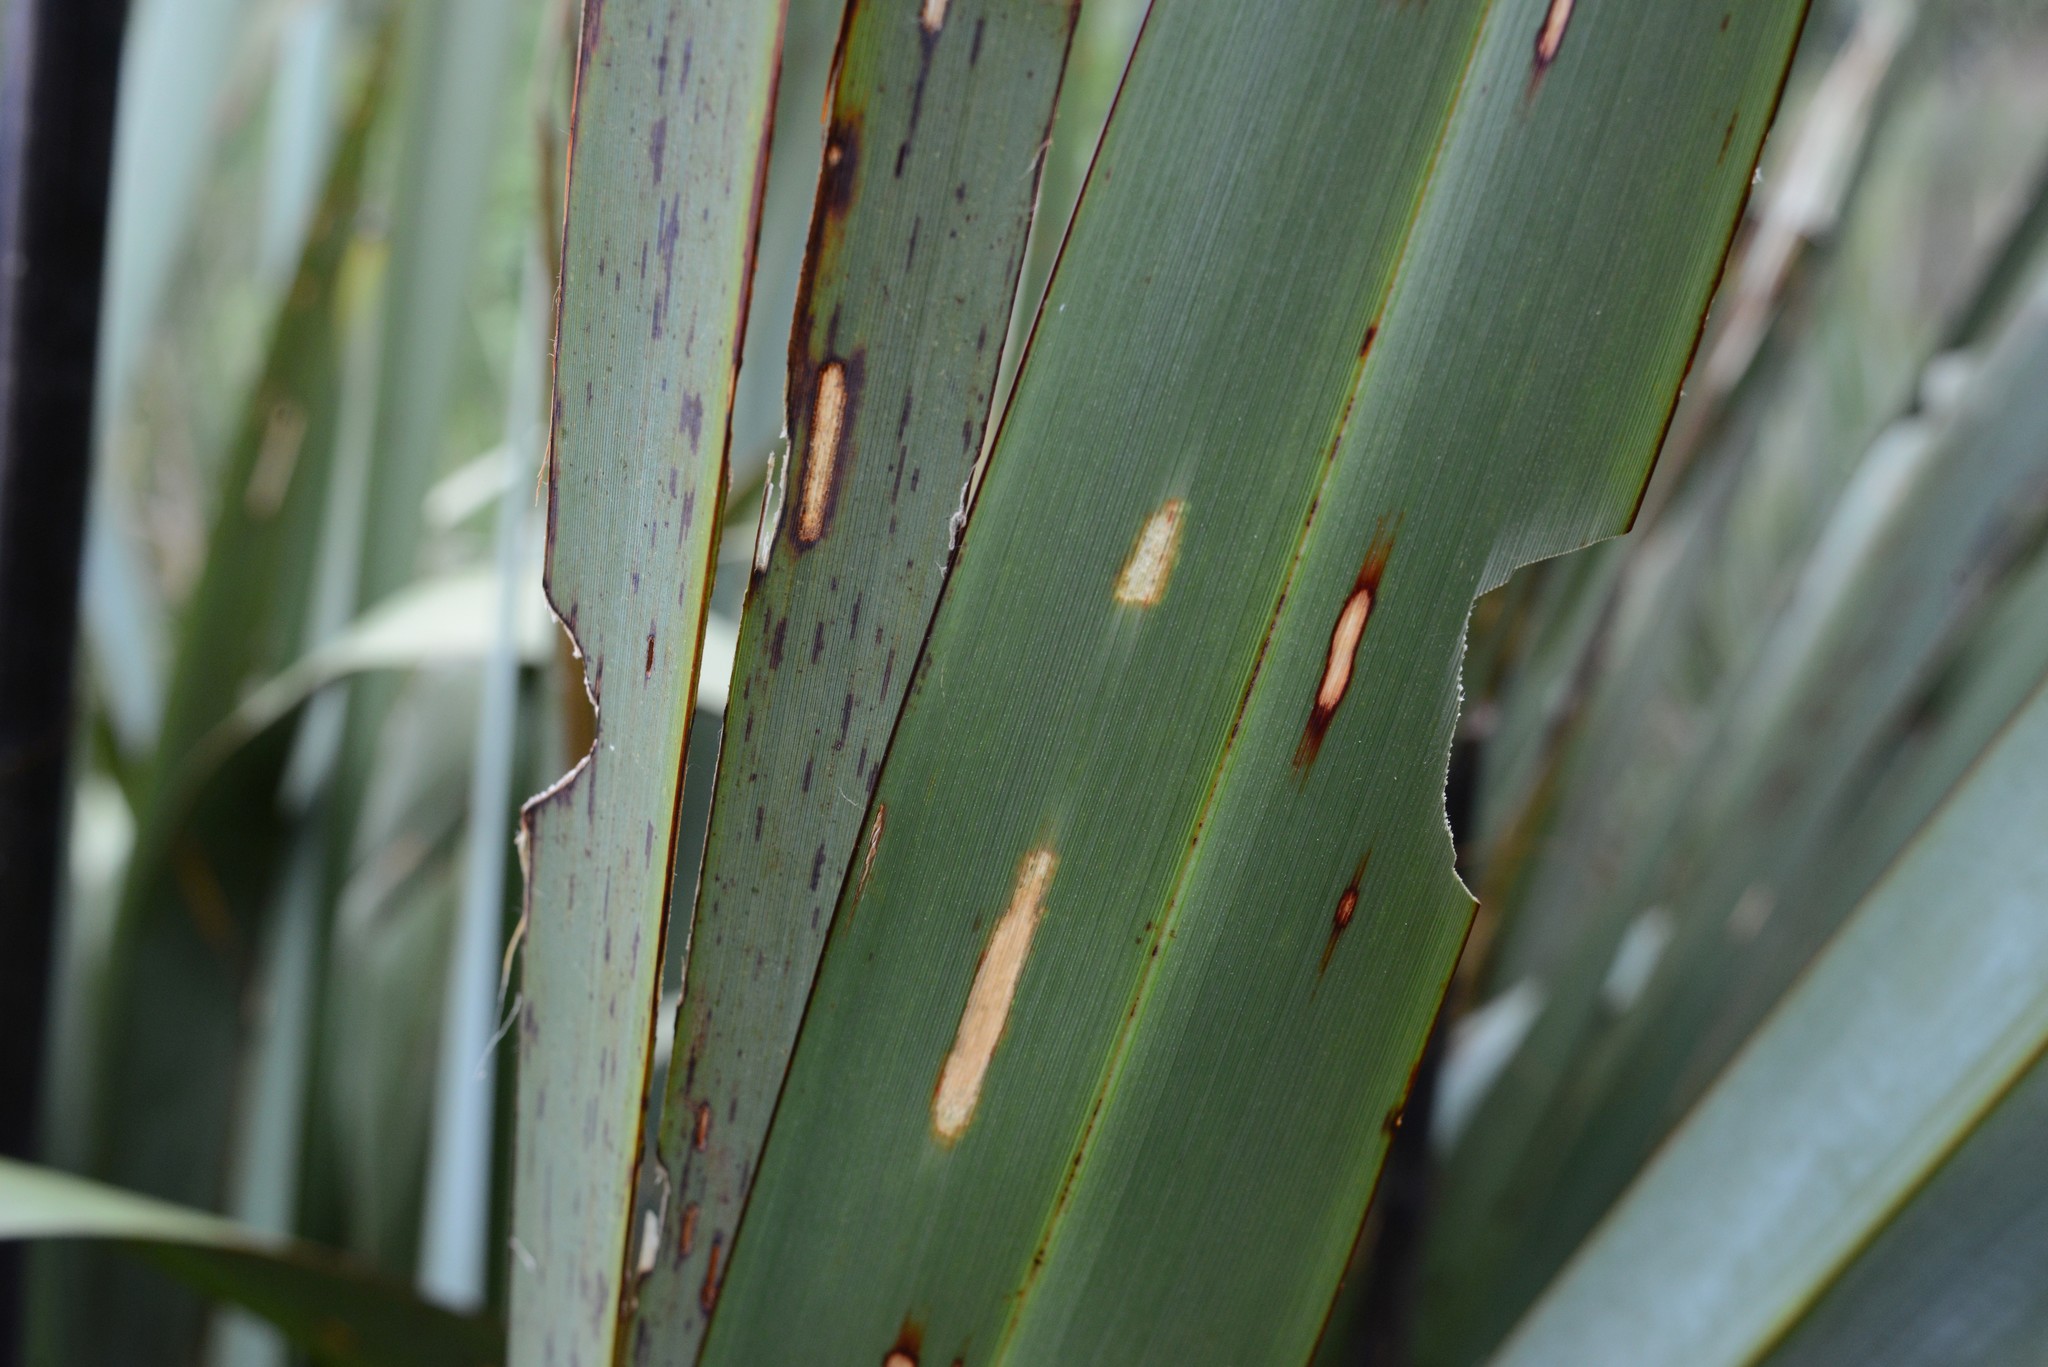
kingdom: Animalia
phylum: Arthropoda
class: Insecta
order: Lepidoptera
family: Noctuidae
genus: Ichneutica
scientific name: Ichneutica
